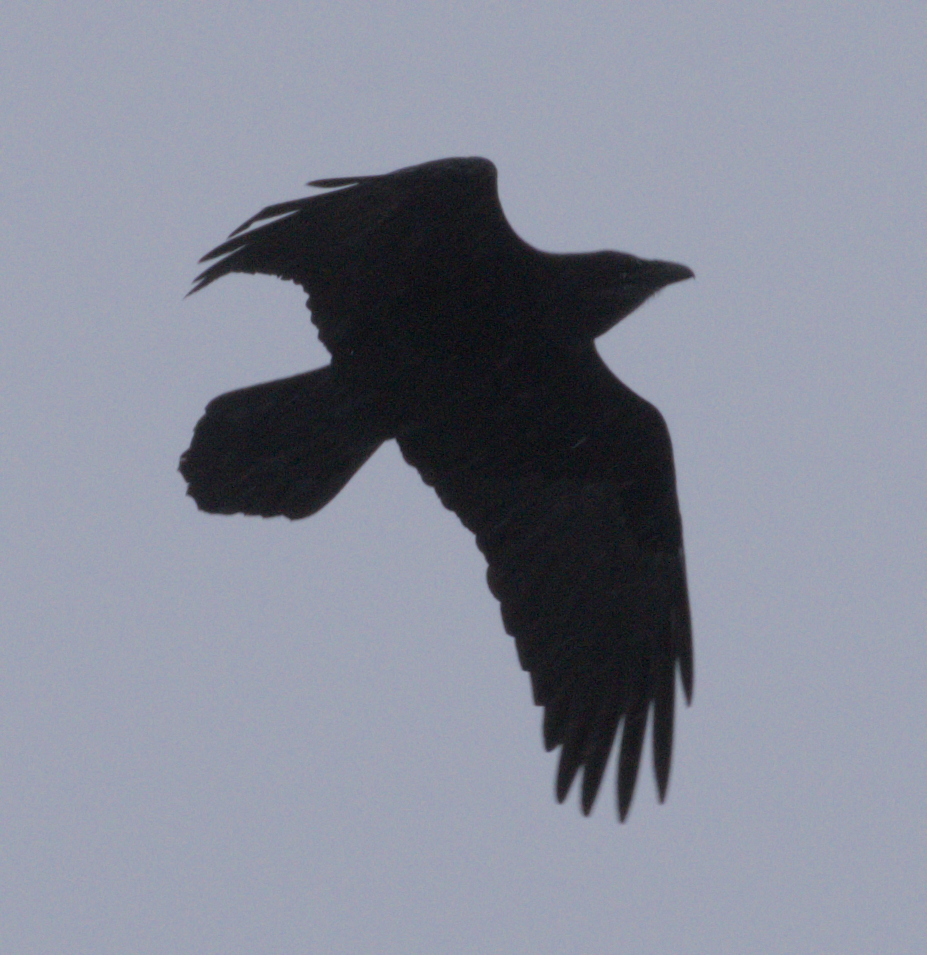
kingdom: Animalia
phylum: Chordata
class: Aves
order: Passeriformes
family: Corvidae
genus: Corvus
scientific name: Corvus corax
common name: Common raven
